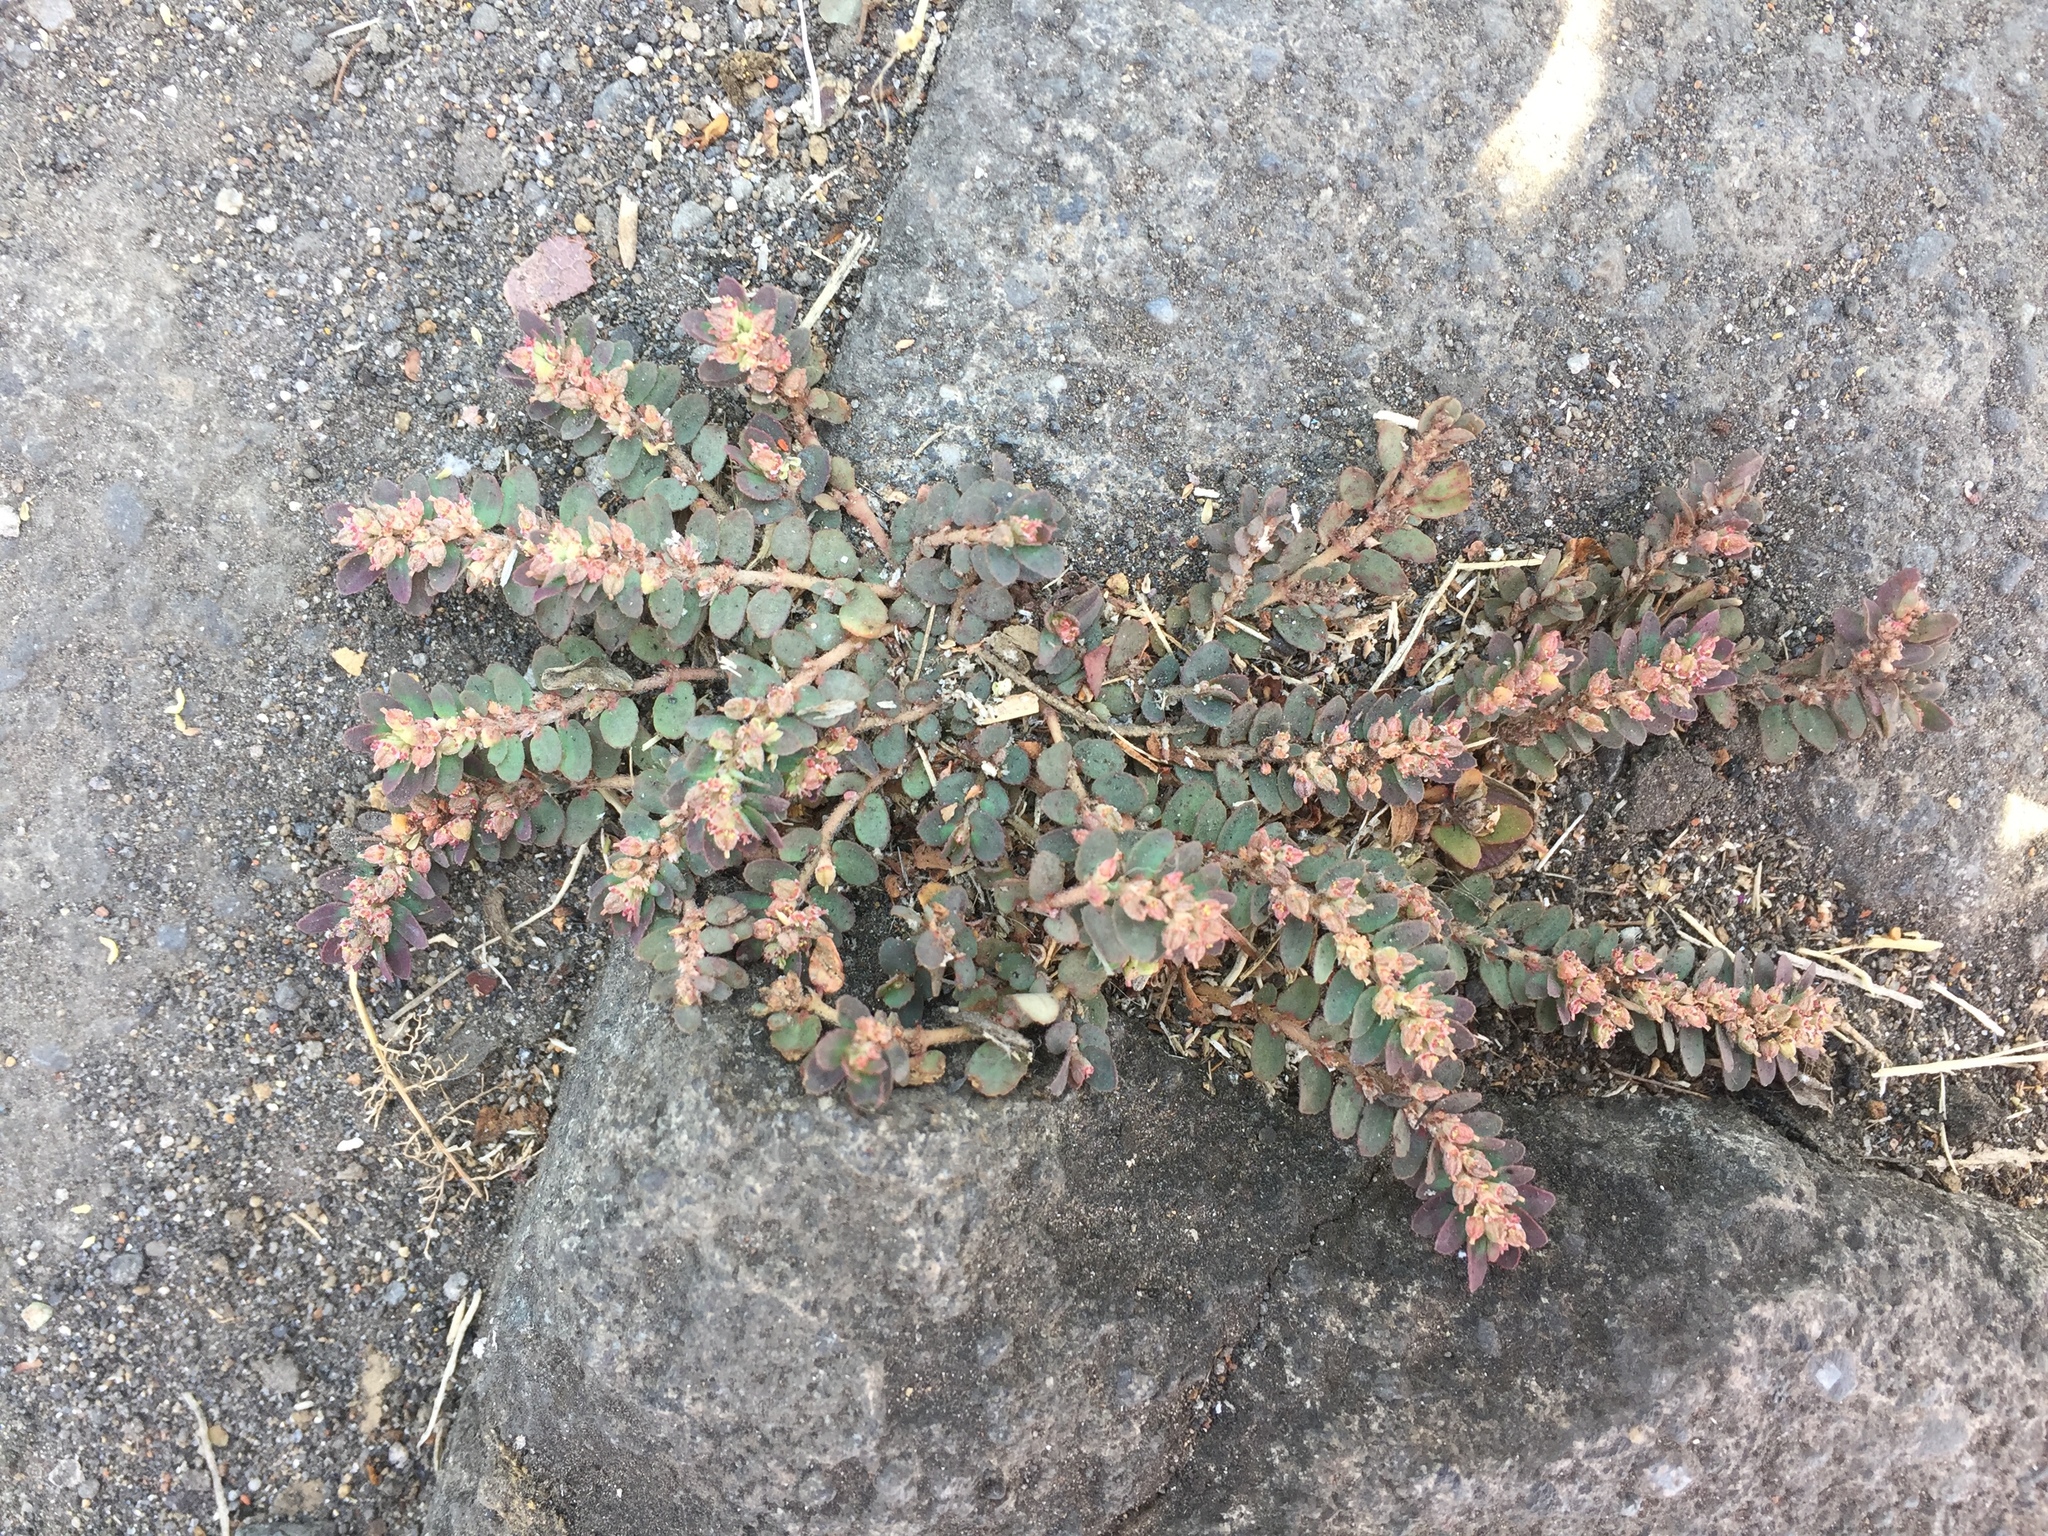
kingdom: Plantae
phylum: Tracheophyta
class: Magnoliopsida
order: Malpighiales
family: Euphorbiaceae
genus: Euphorbia
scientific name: Euphorbia thymifolia
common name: Gulf sandmat
